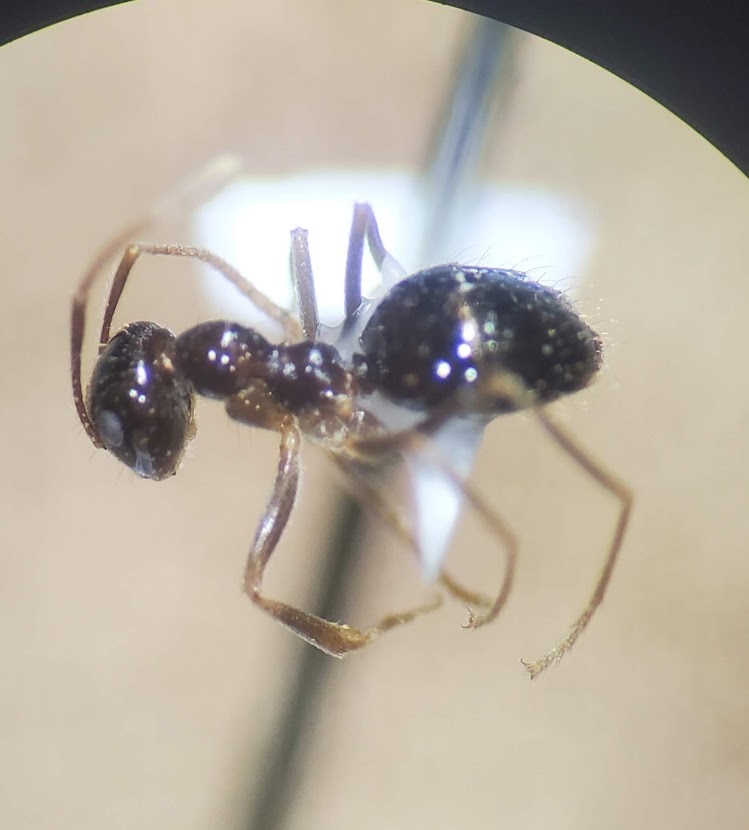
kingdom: Animalia
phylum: Arthropoda
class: Insecta
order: Hymenoptera
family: Formicidae
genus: Prenolepis
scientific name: Prenolepis imparis
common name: Small honey ant
